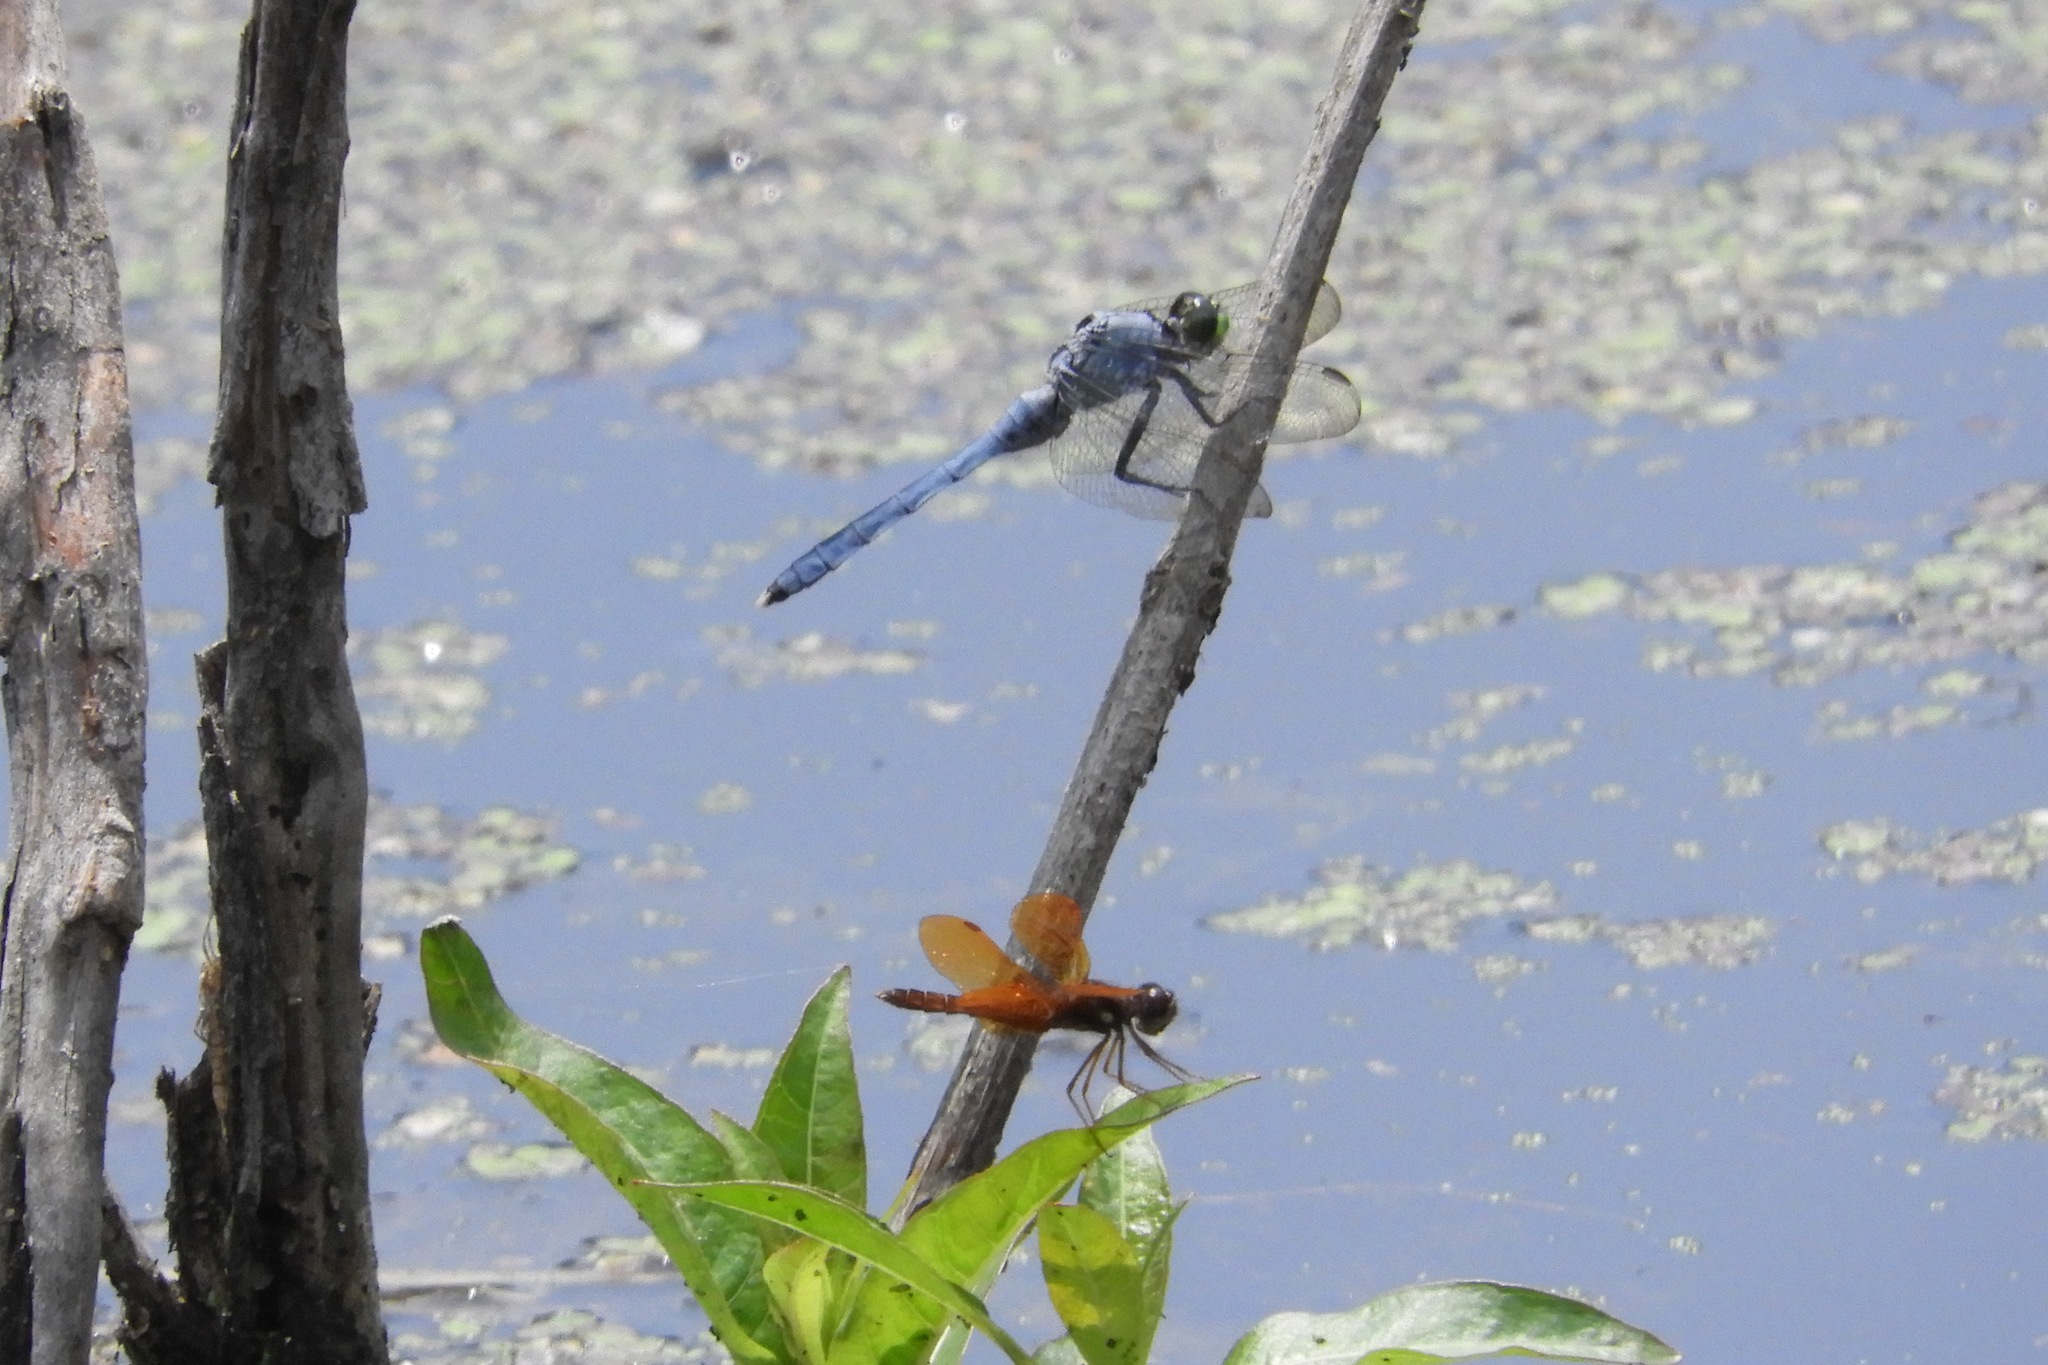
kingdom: Animalia
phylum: Arthropoda
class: Insecta
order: Odonata
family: Libellulidae
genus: Perithemis
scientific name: Perithemis tenera
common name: Eastern amberwing
